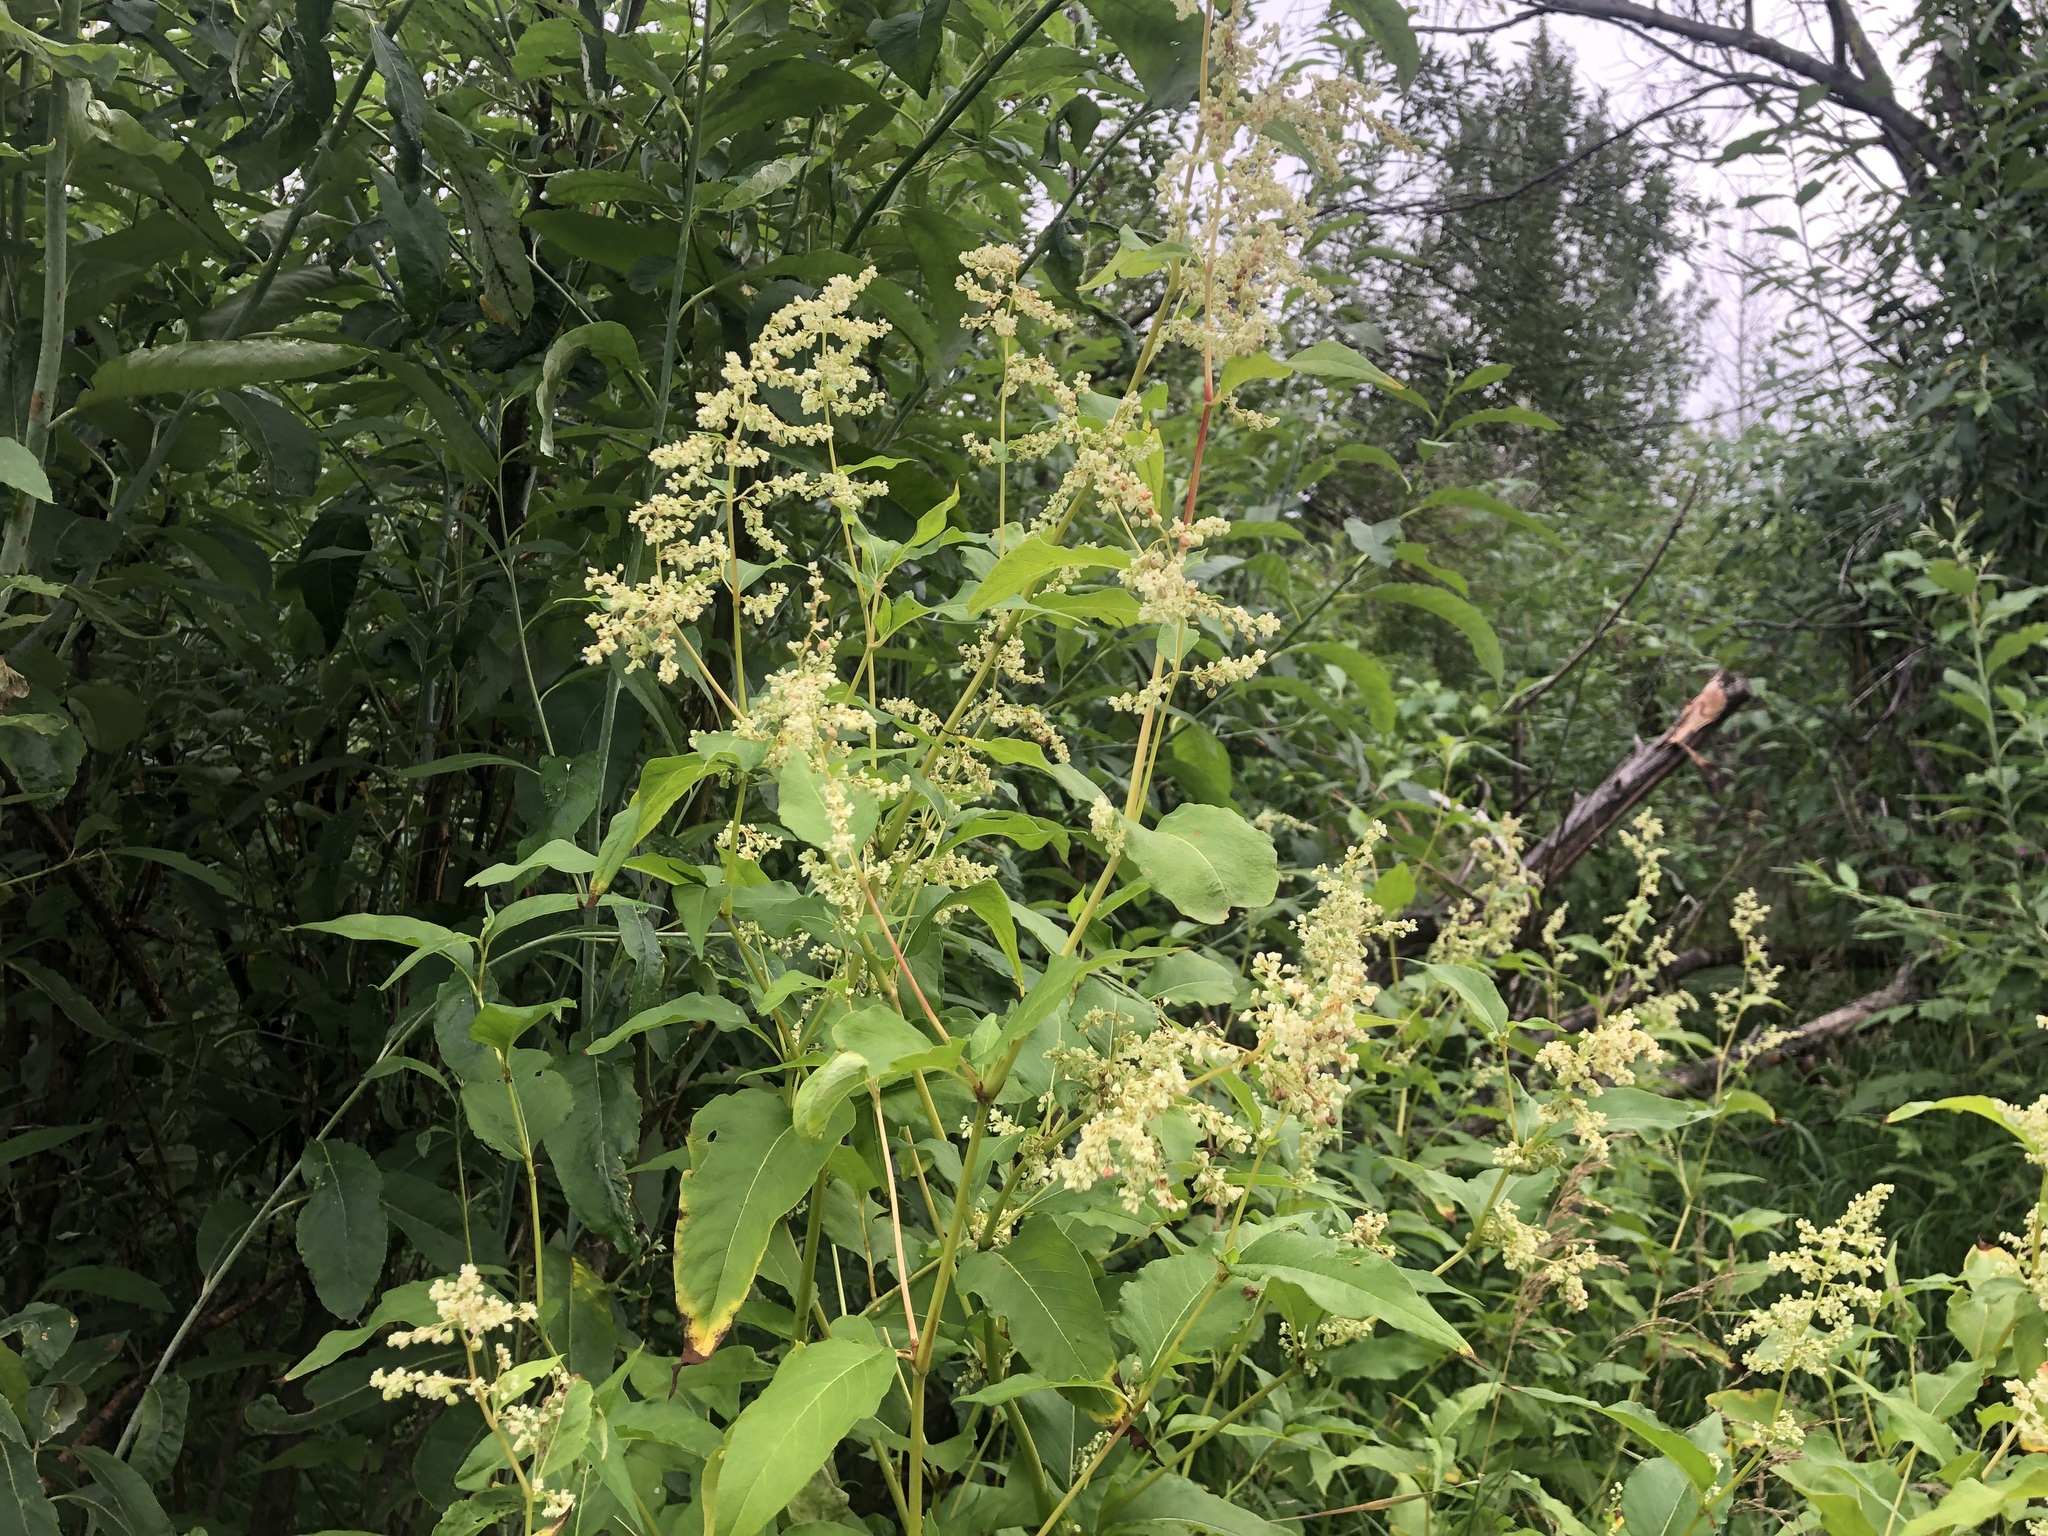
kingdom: Plantae
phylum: Tracheophyta
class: Magnoliopsida
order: Caryophyllales
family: Polygonaceae
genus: Koenigia
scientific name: Koenigia lapathifolia
